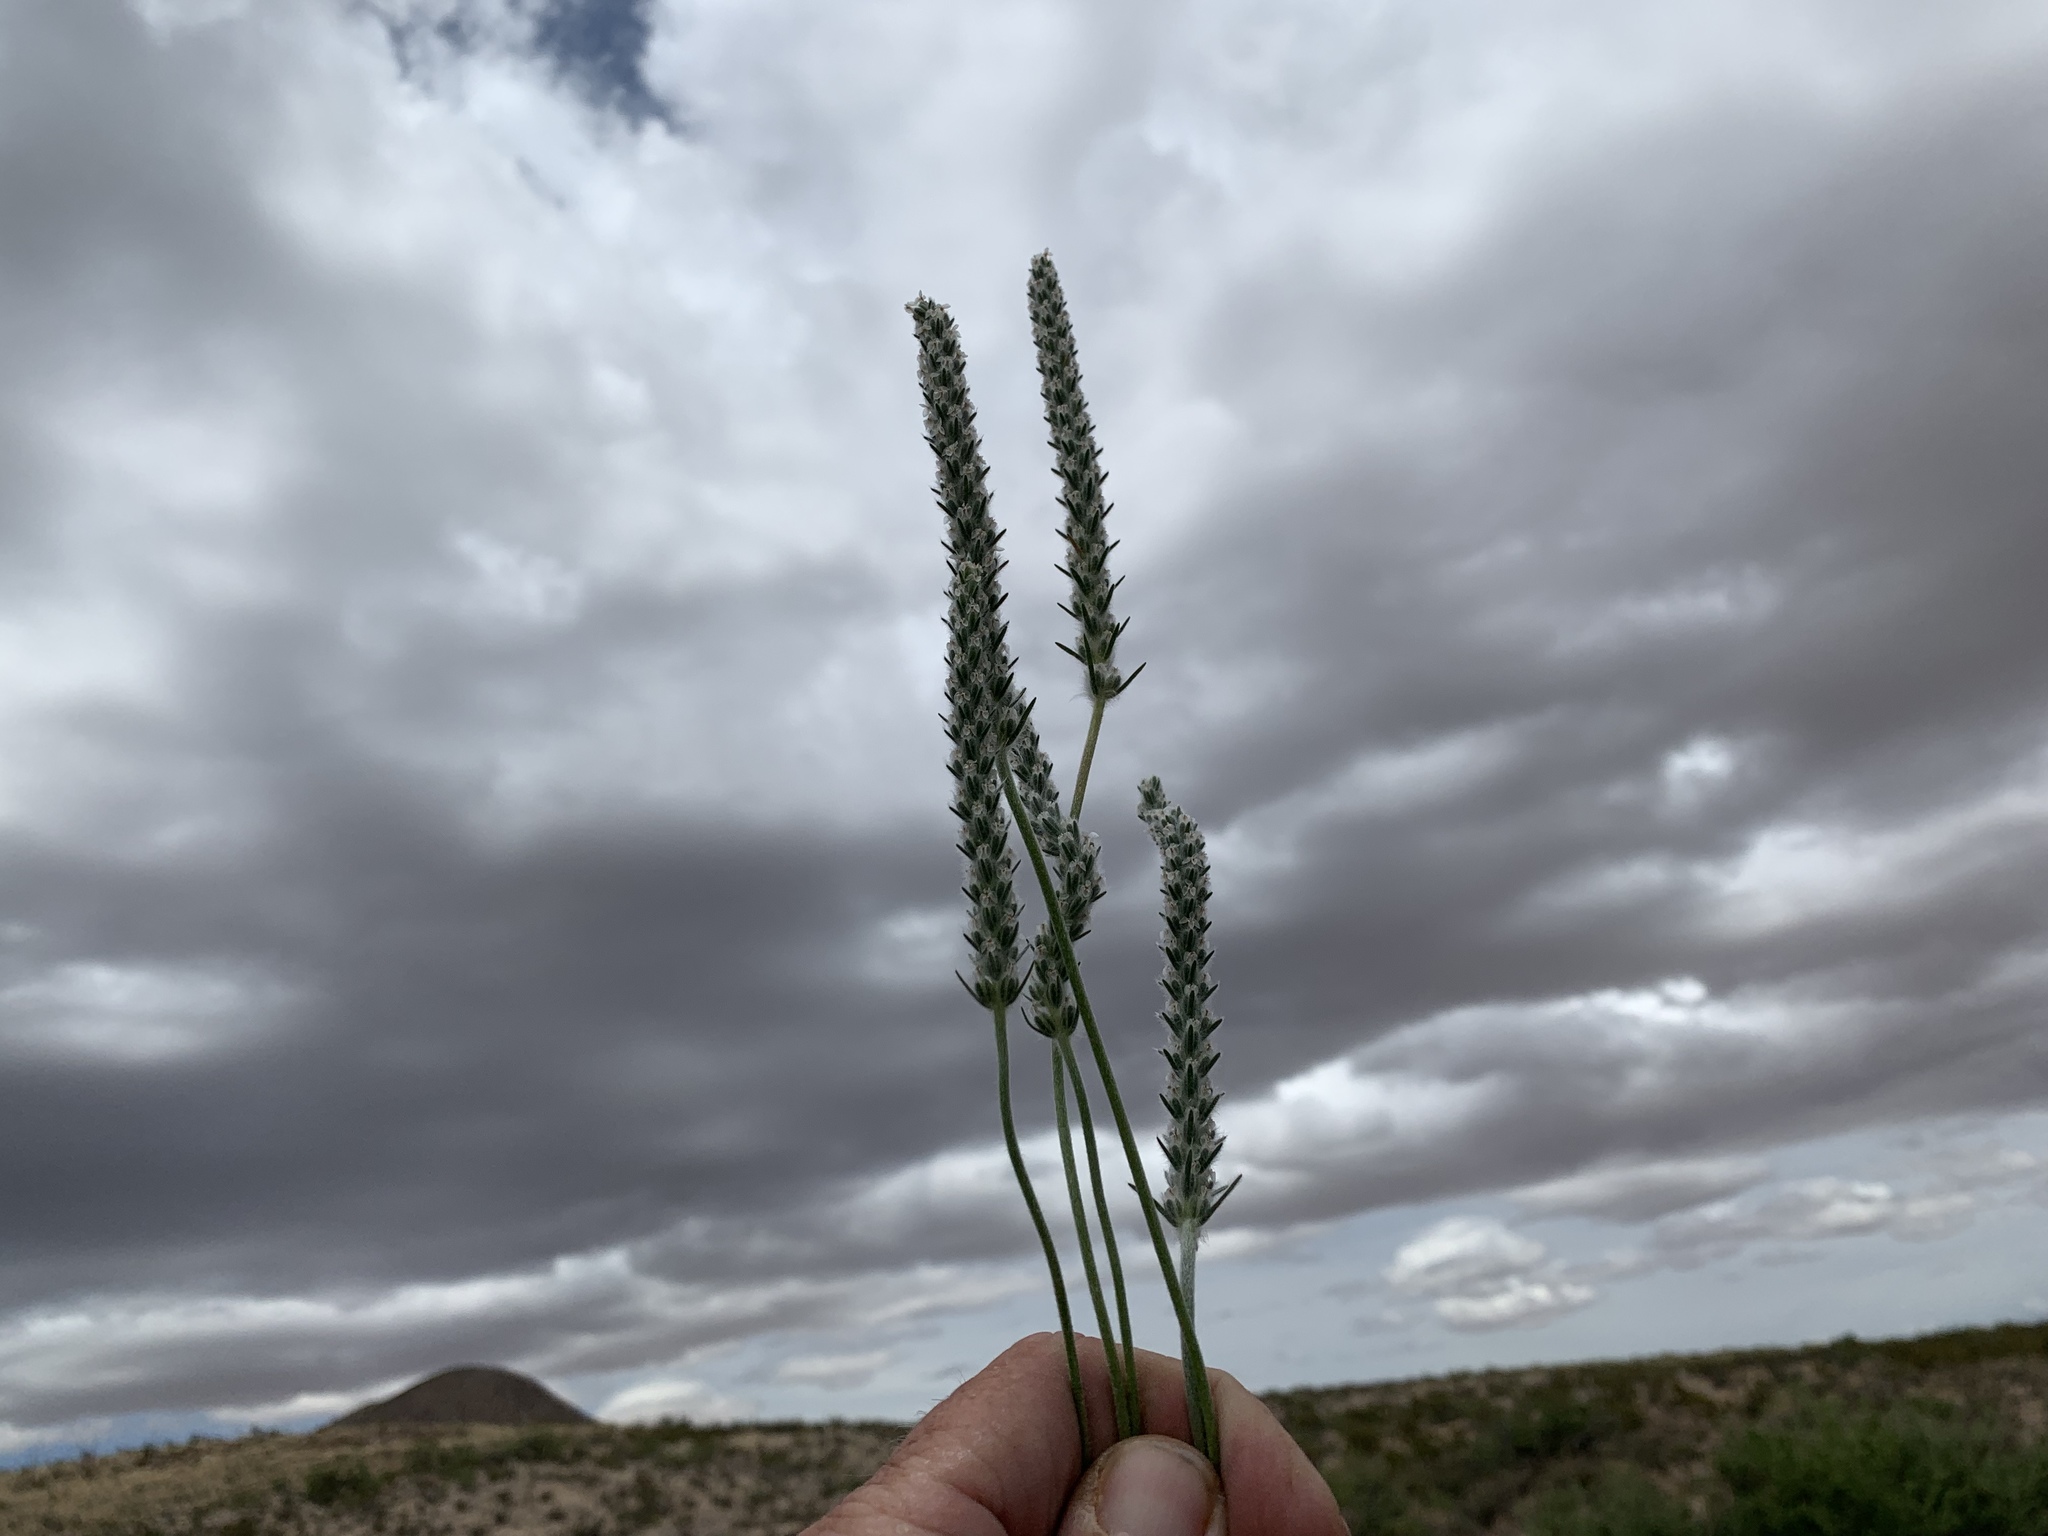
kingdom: Plantae
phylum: Tracheophyta
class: Magnoliopsida
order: Lamiales
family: Plantaginaceae
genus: Plantago
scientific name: Plantago patagonica
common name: Patagonia indian-wheat
